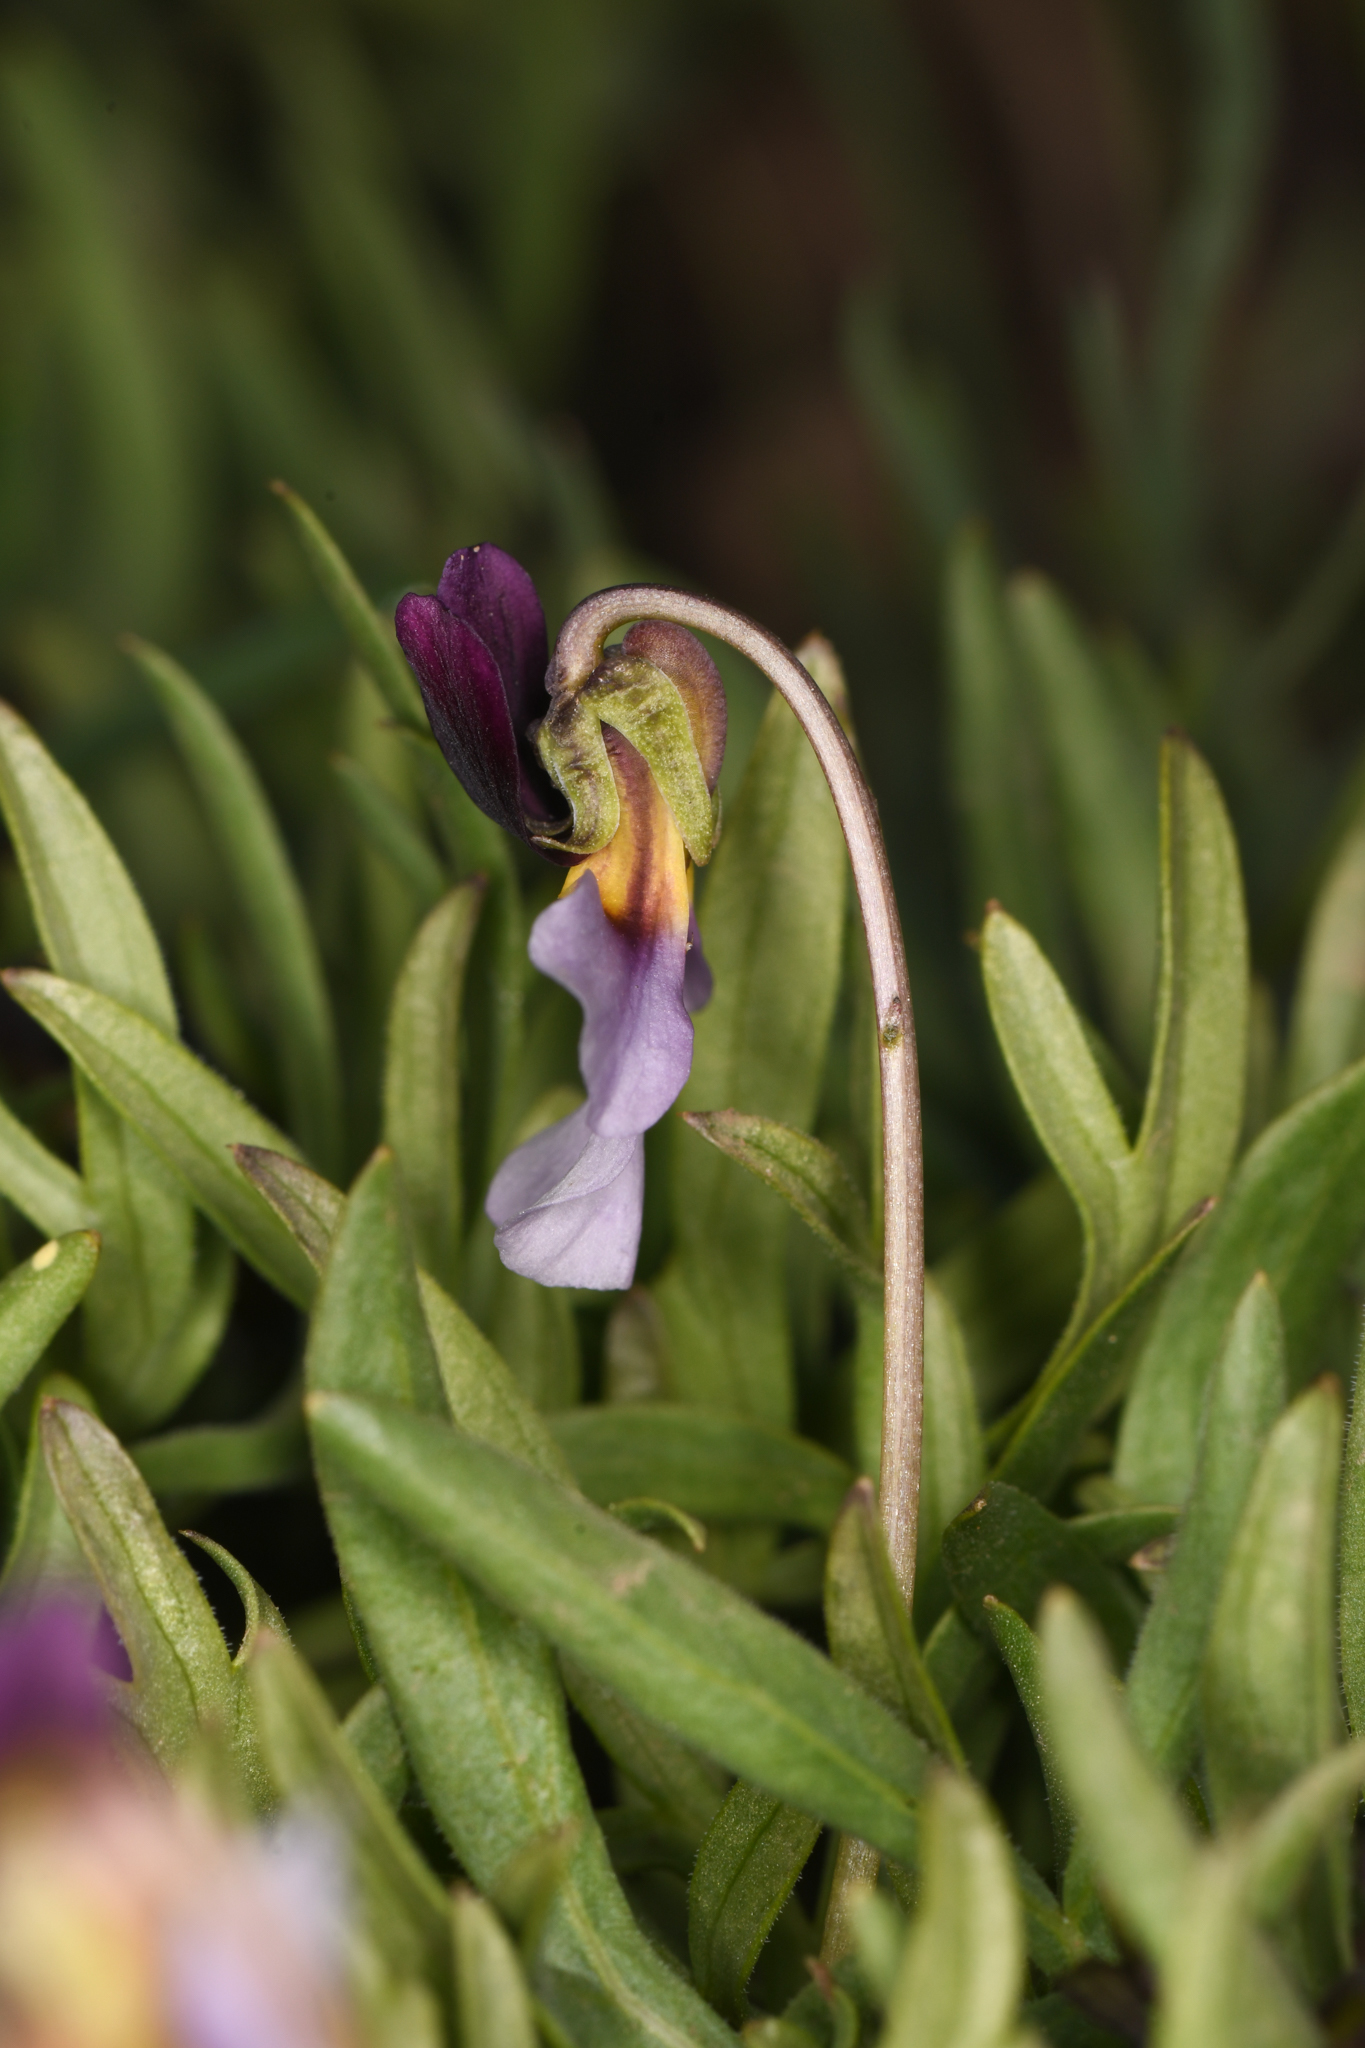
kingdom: Plantae
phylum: Tracheophyta
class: Magnoliopsida
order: Malpighiales
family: Violaceae
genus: Viola
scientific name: Viola beckwithii
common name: Beckwith's violet
